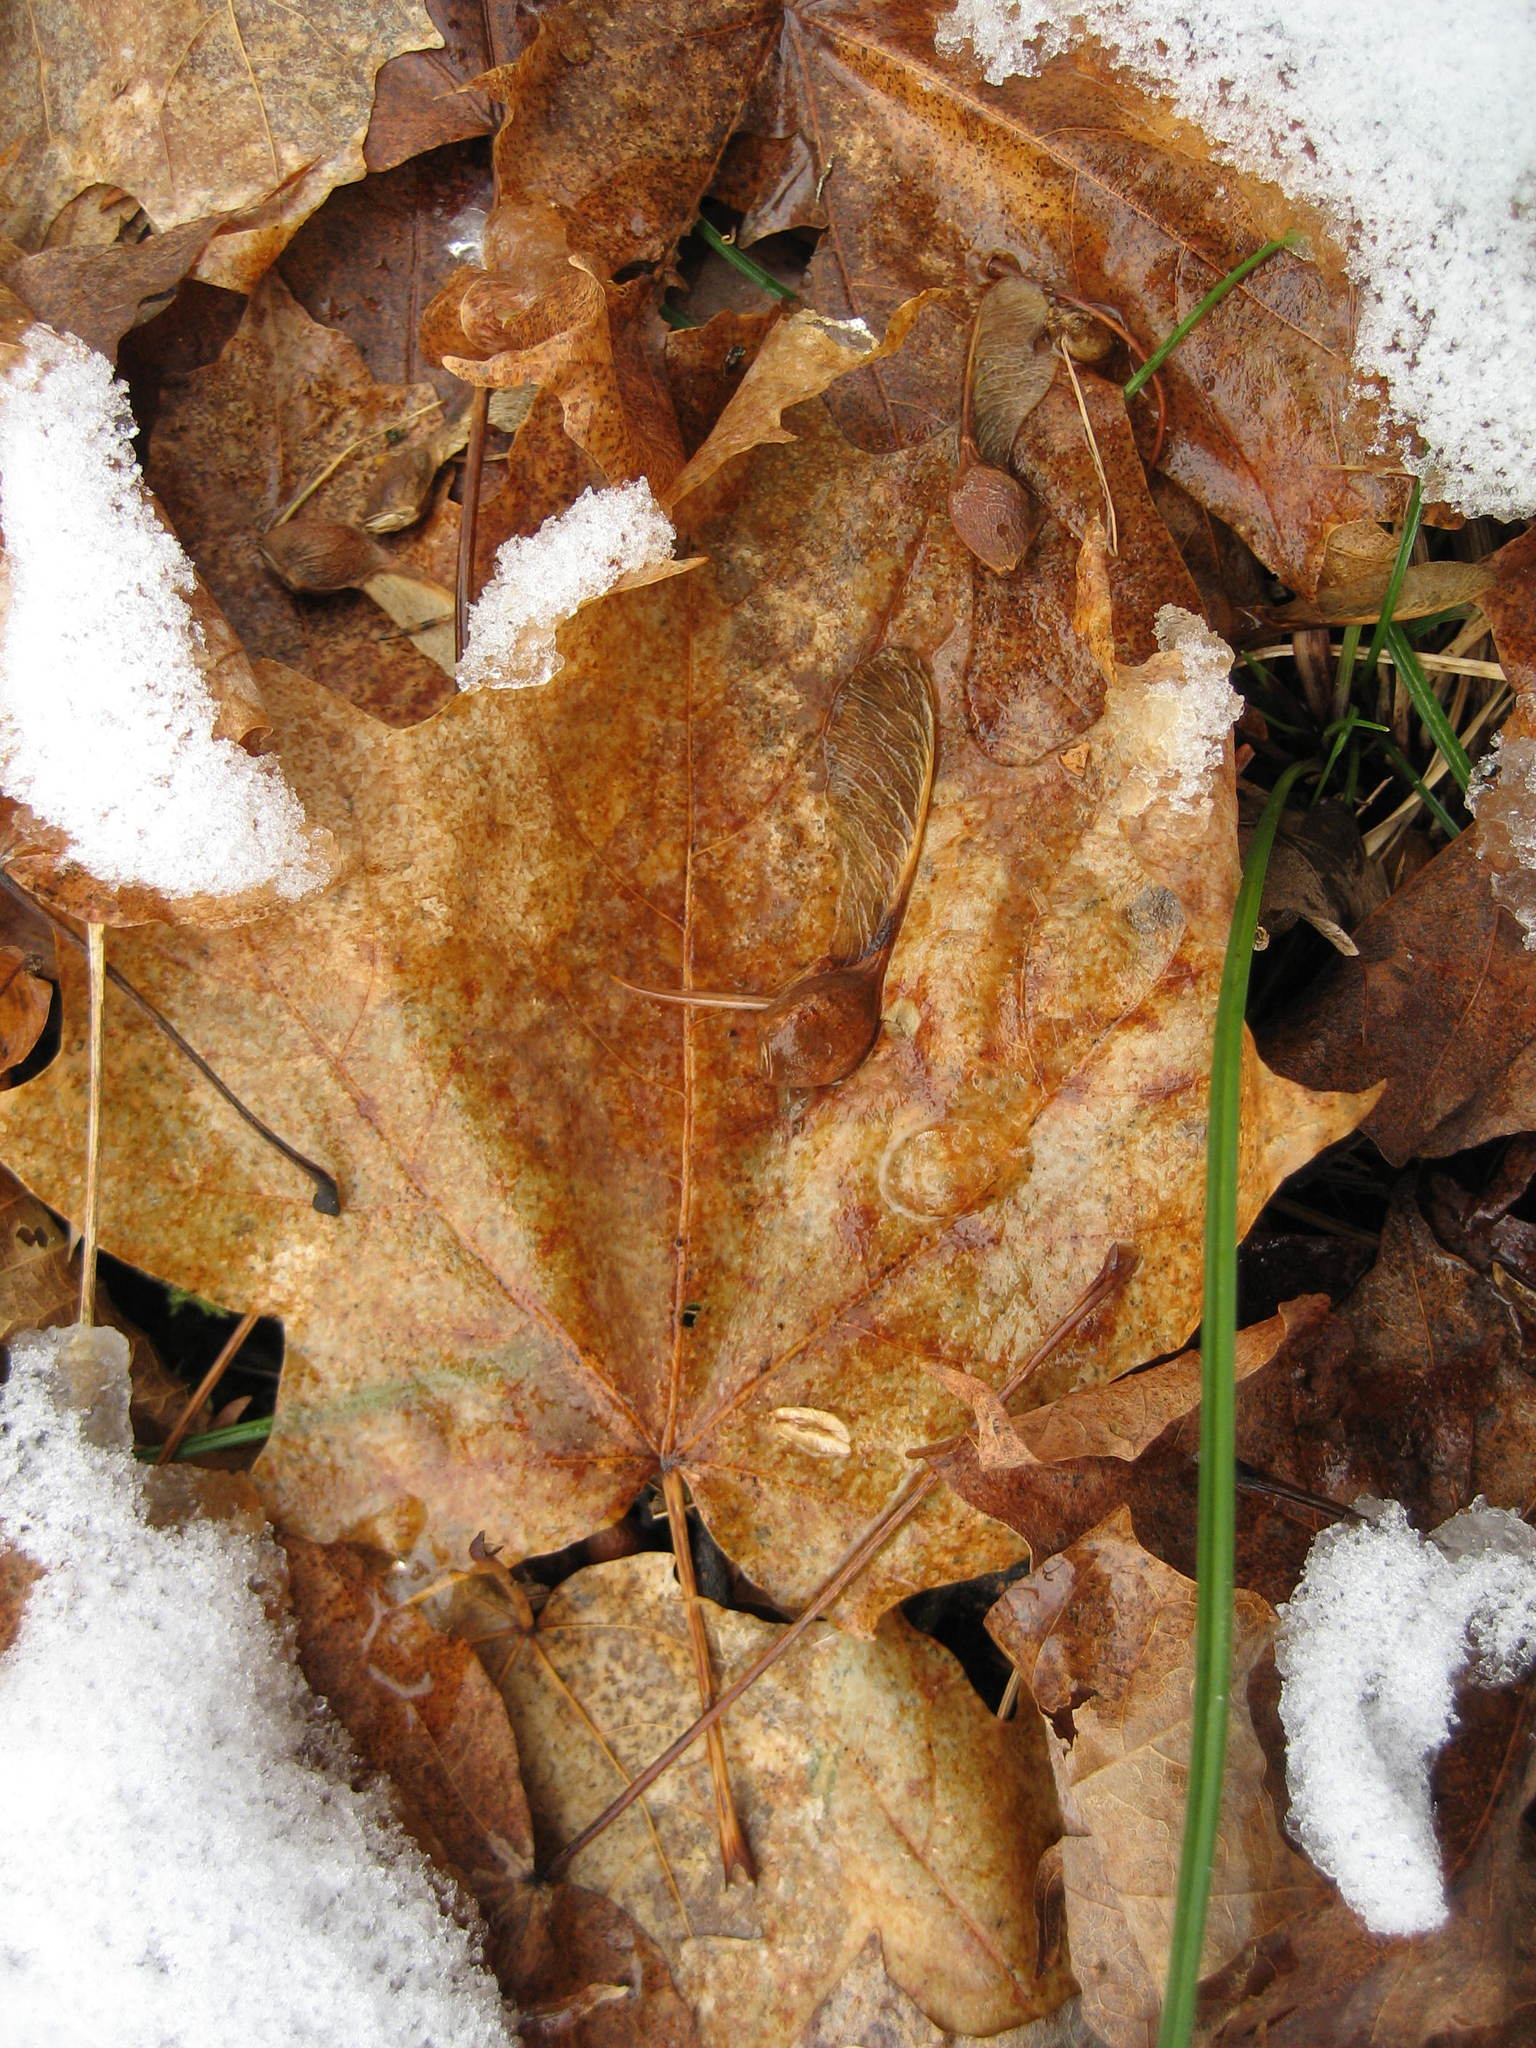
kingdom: Plantae
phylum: Tracheophyta
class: Magnoliopsida
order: Sapindales
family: Sapindaceae
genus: Acer
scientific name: Acer saccharum
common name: Sugar maple
